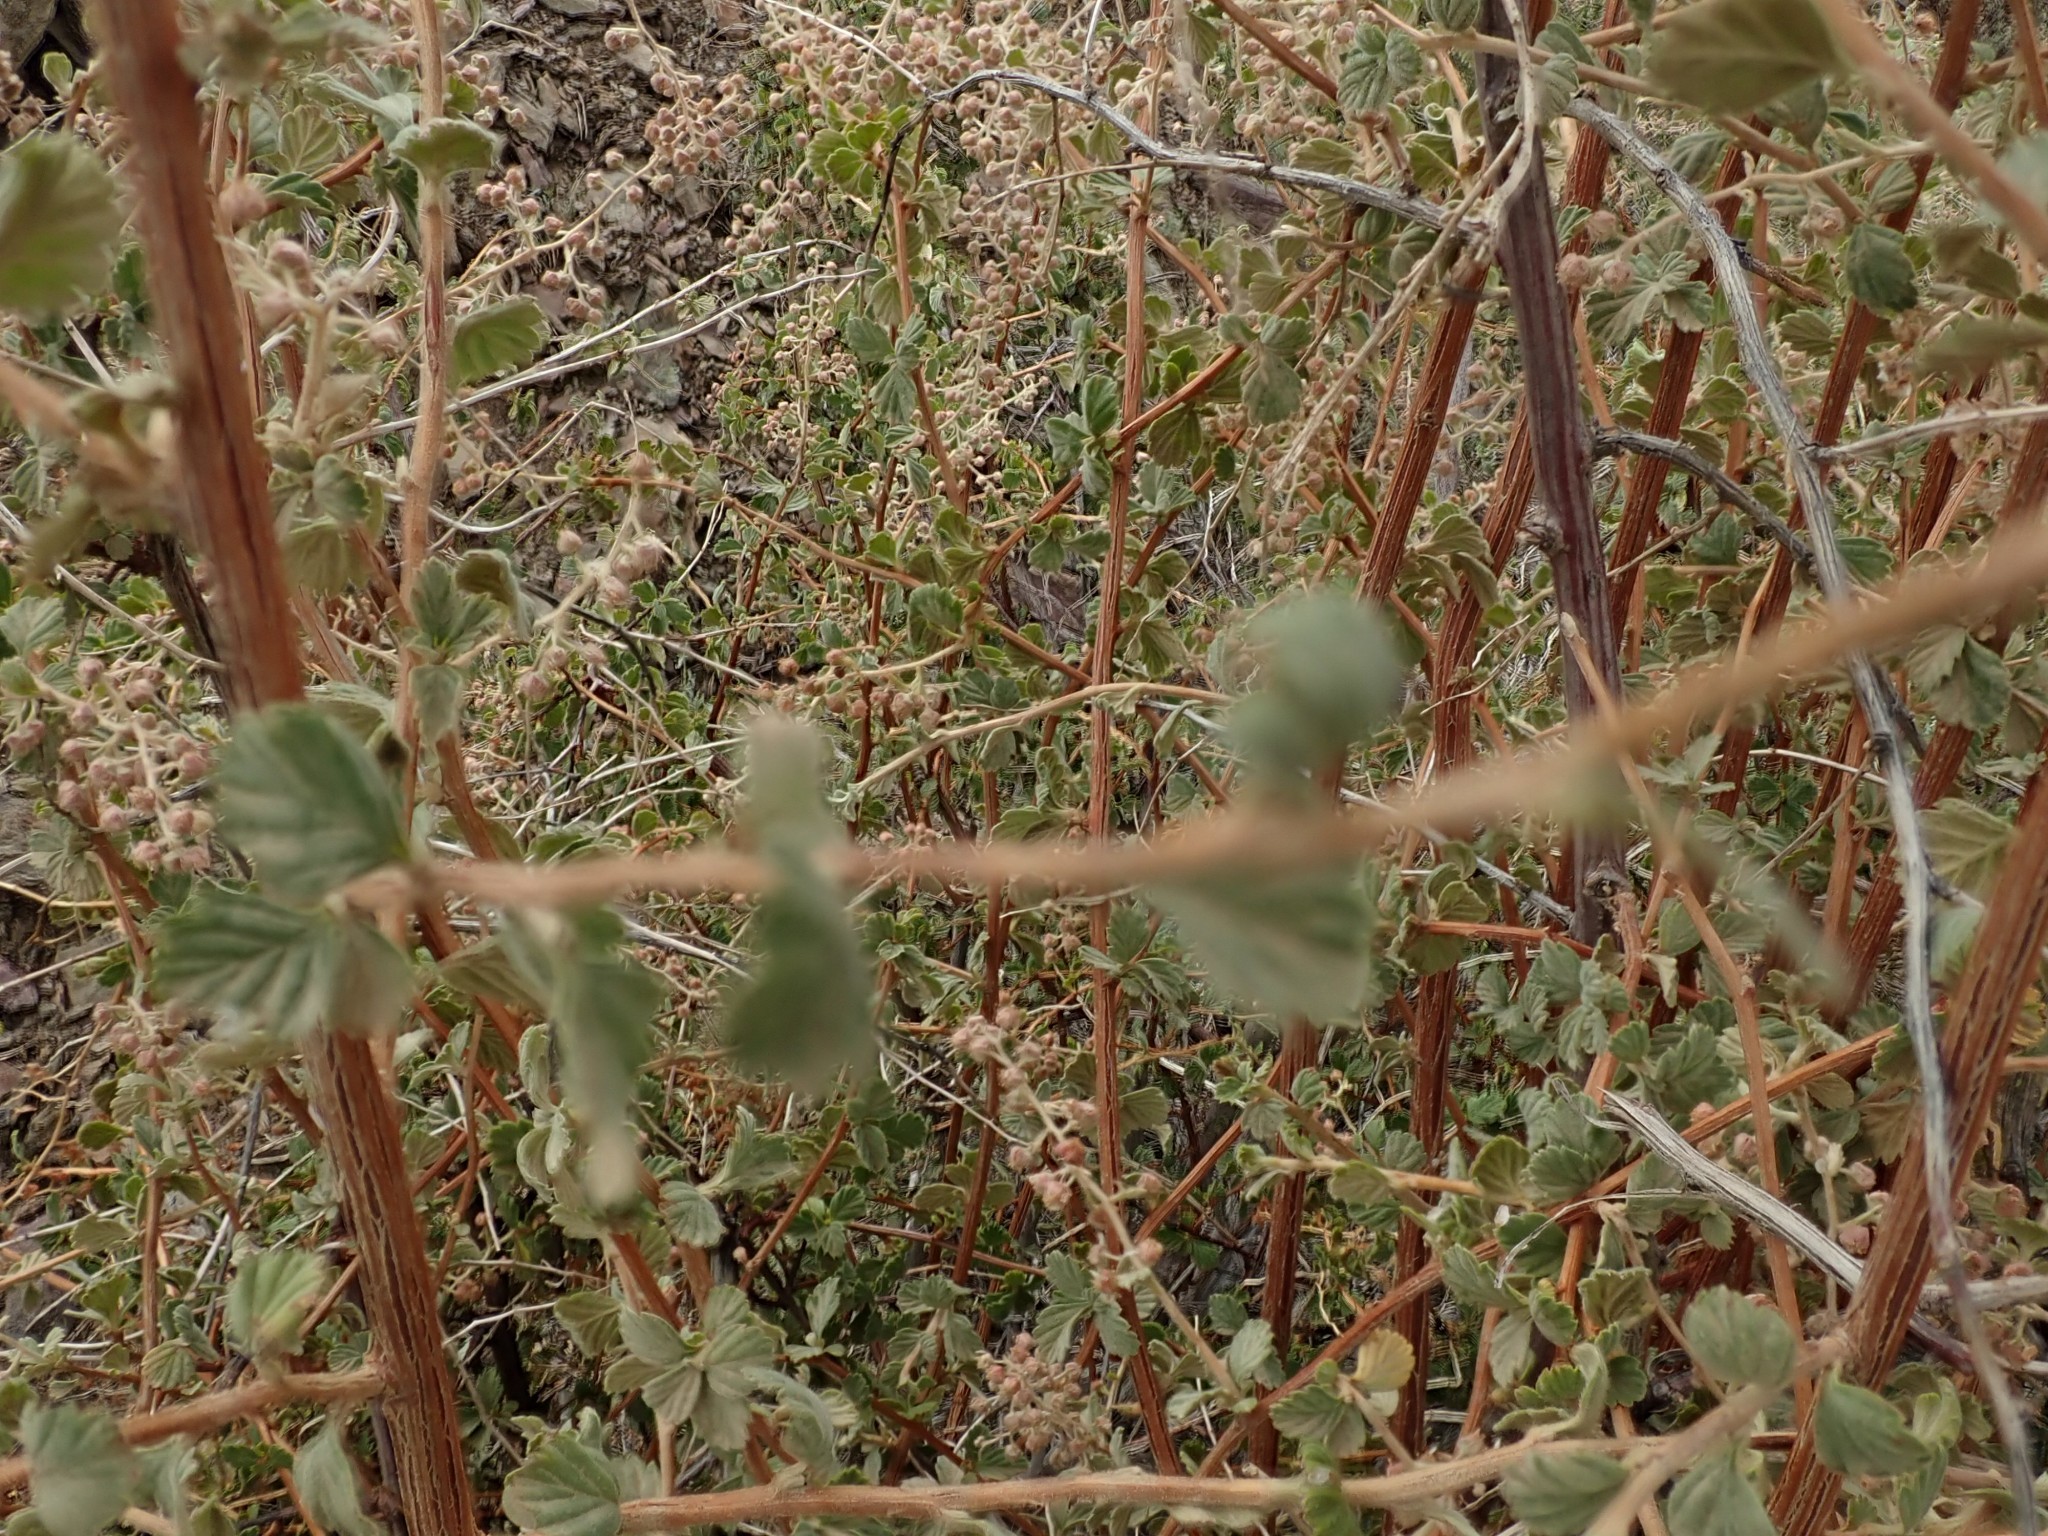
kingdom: Plantae
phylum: Tracheophyta
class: Magnoliopsida
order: Rosales
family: Rosaceae
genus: Holodiscus
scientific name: Holodiscus discolor
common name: Oceanspray
